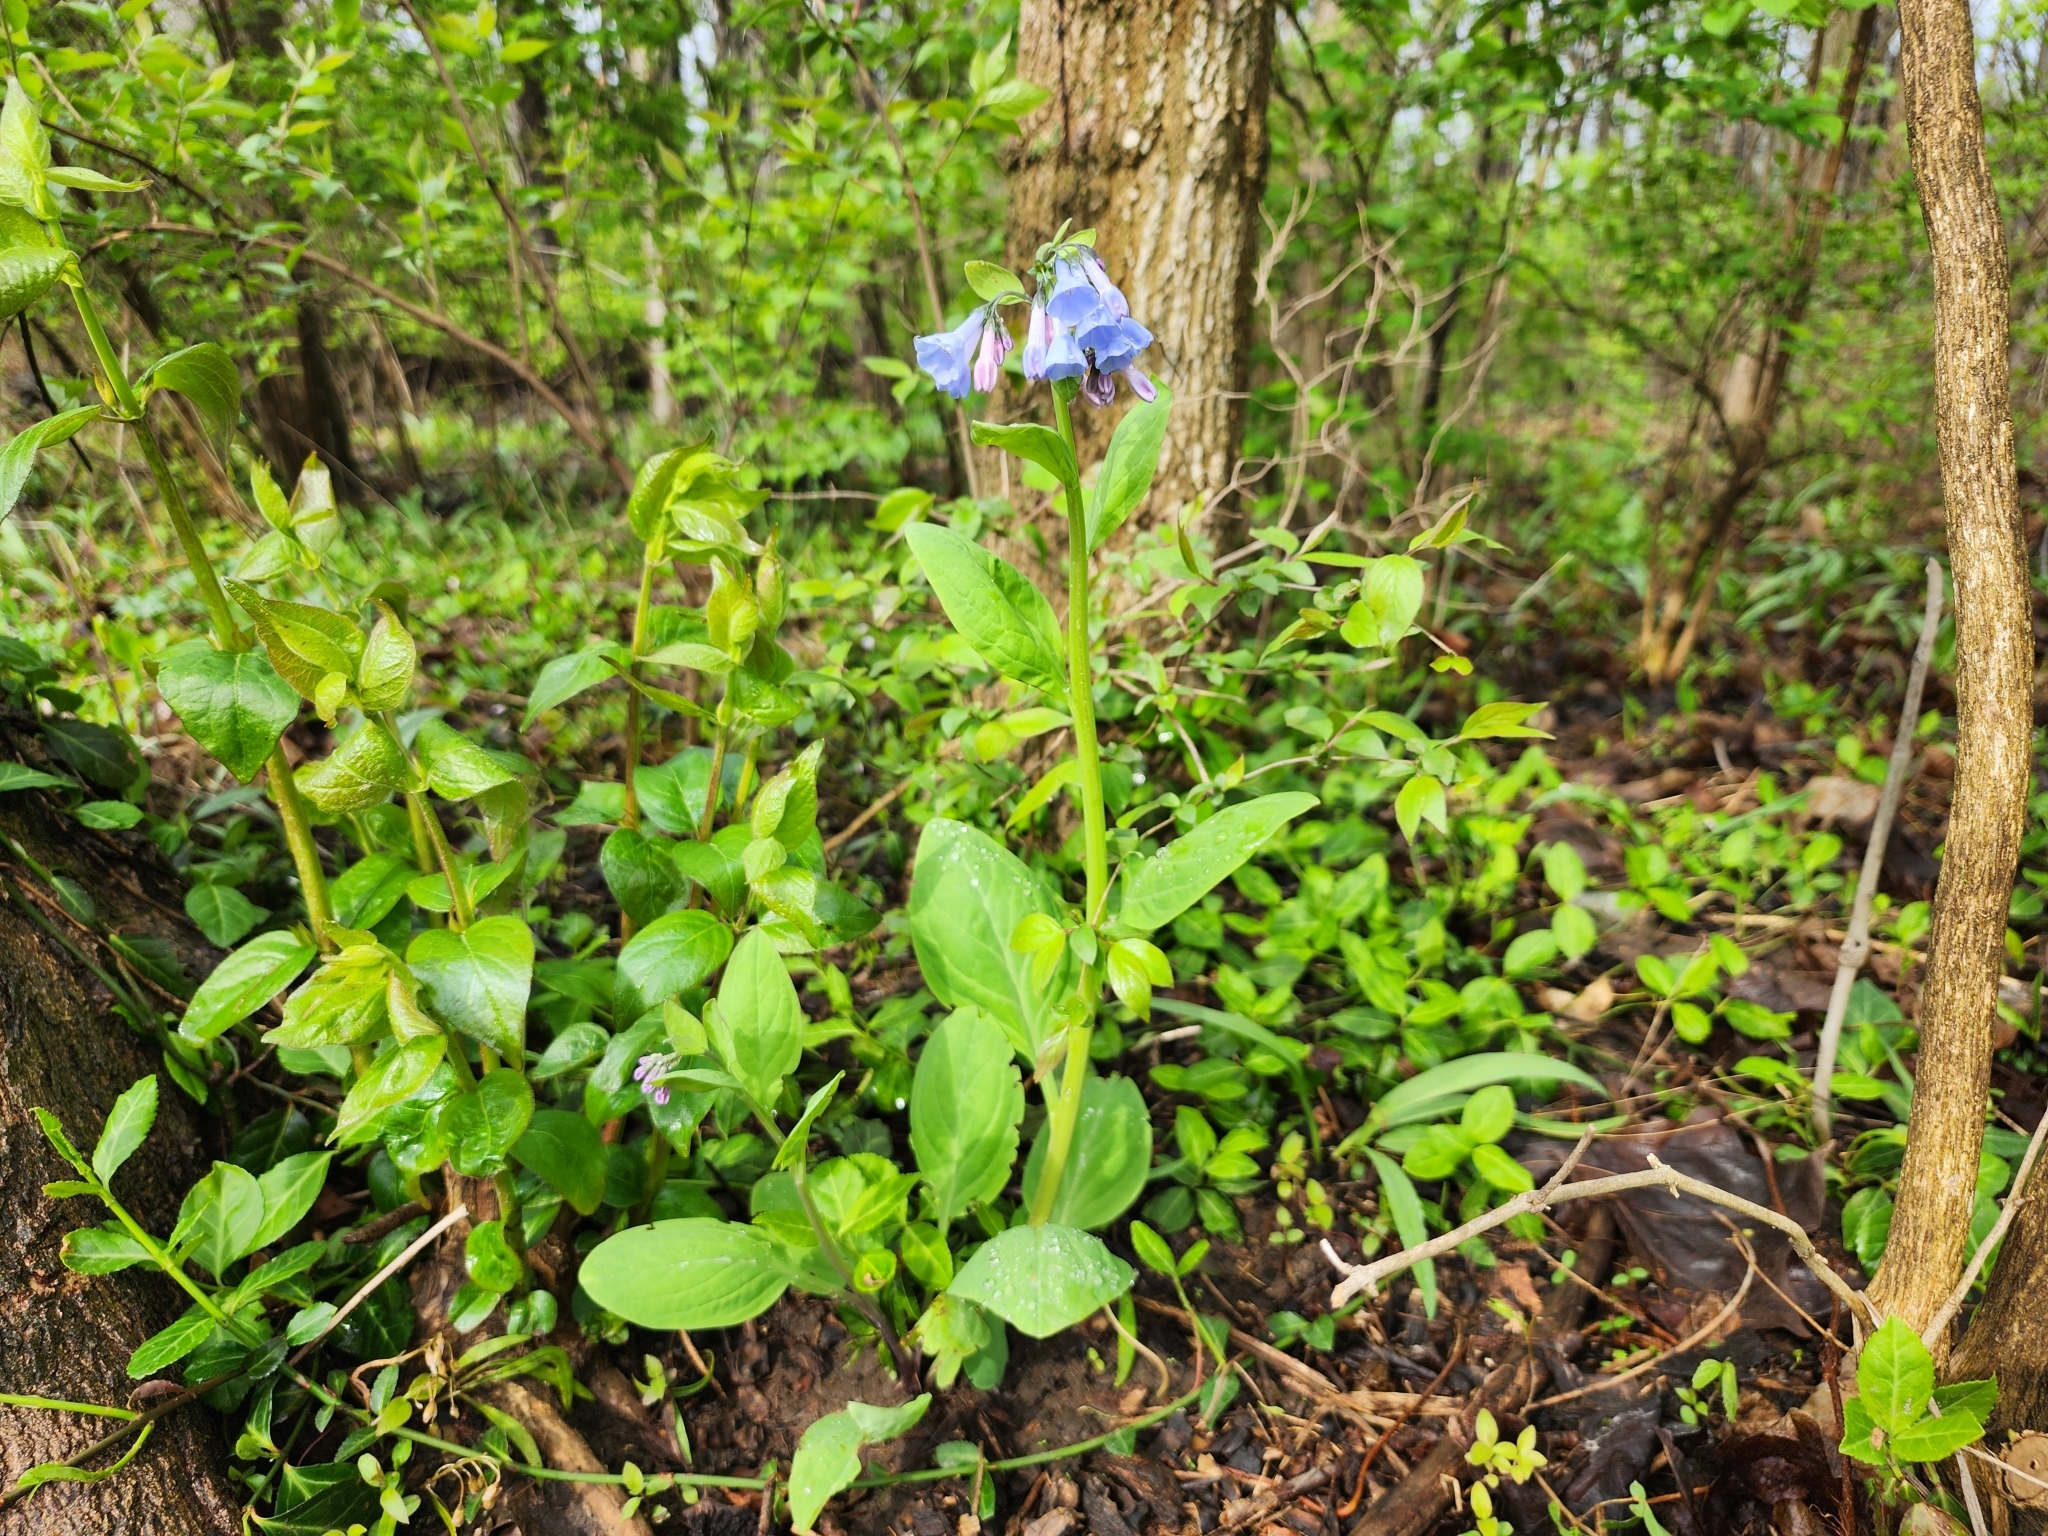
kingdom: Plantae
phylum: Tracheophyta
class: Magnoliopsida
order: Boraginales
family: Boraginaceae
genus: Mertensia
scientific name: Mertensia virginica
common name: Virginia bluebells
